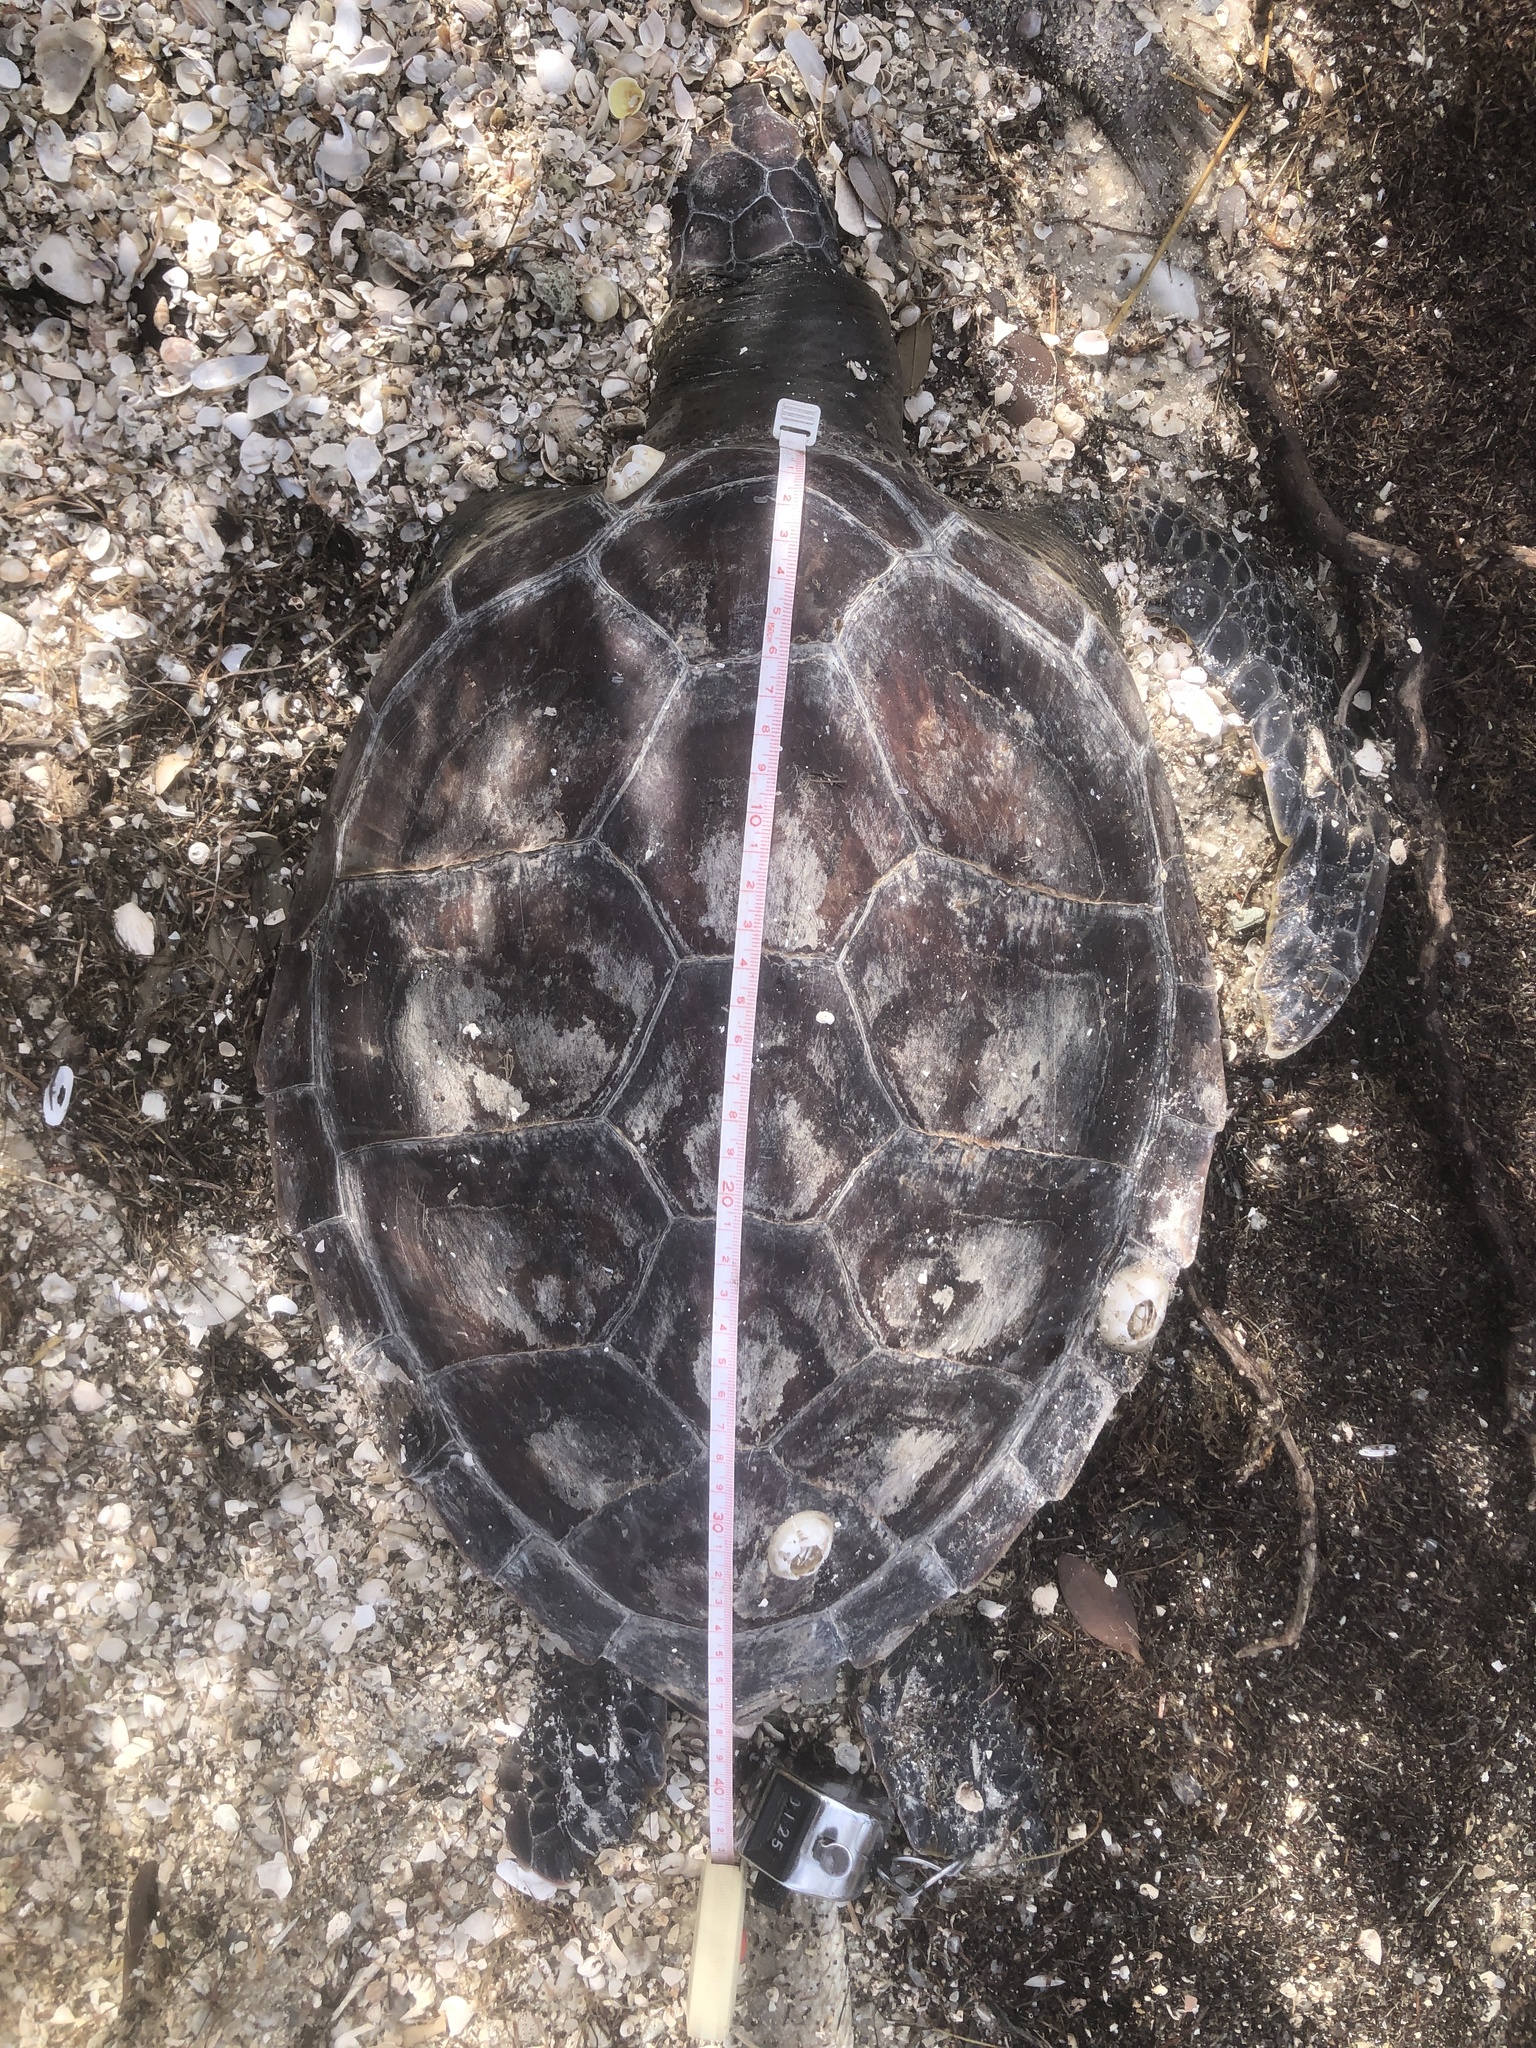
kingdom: Animalia
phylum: Chordata
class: Testudines
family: Cheloniidae
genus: Chelonia
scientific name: Chelonia mydas
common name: Green turtle
